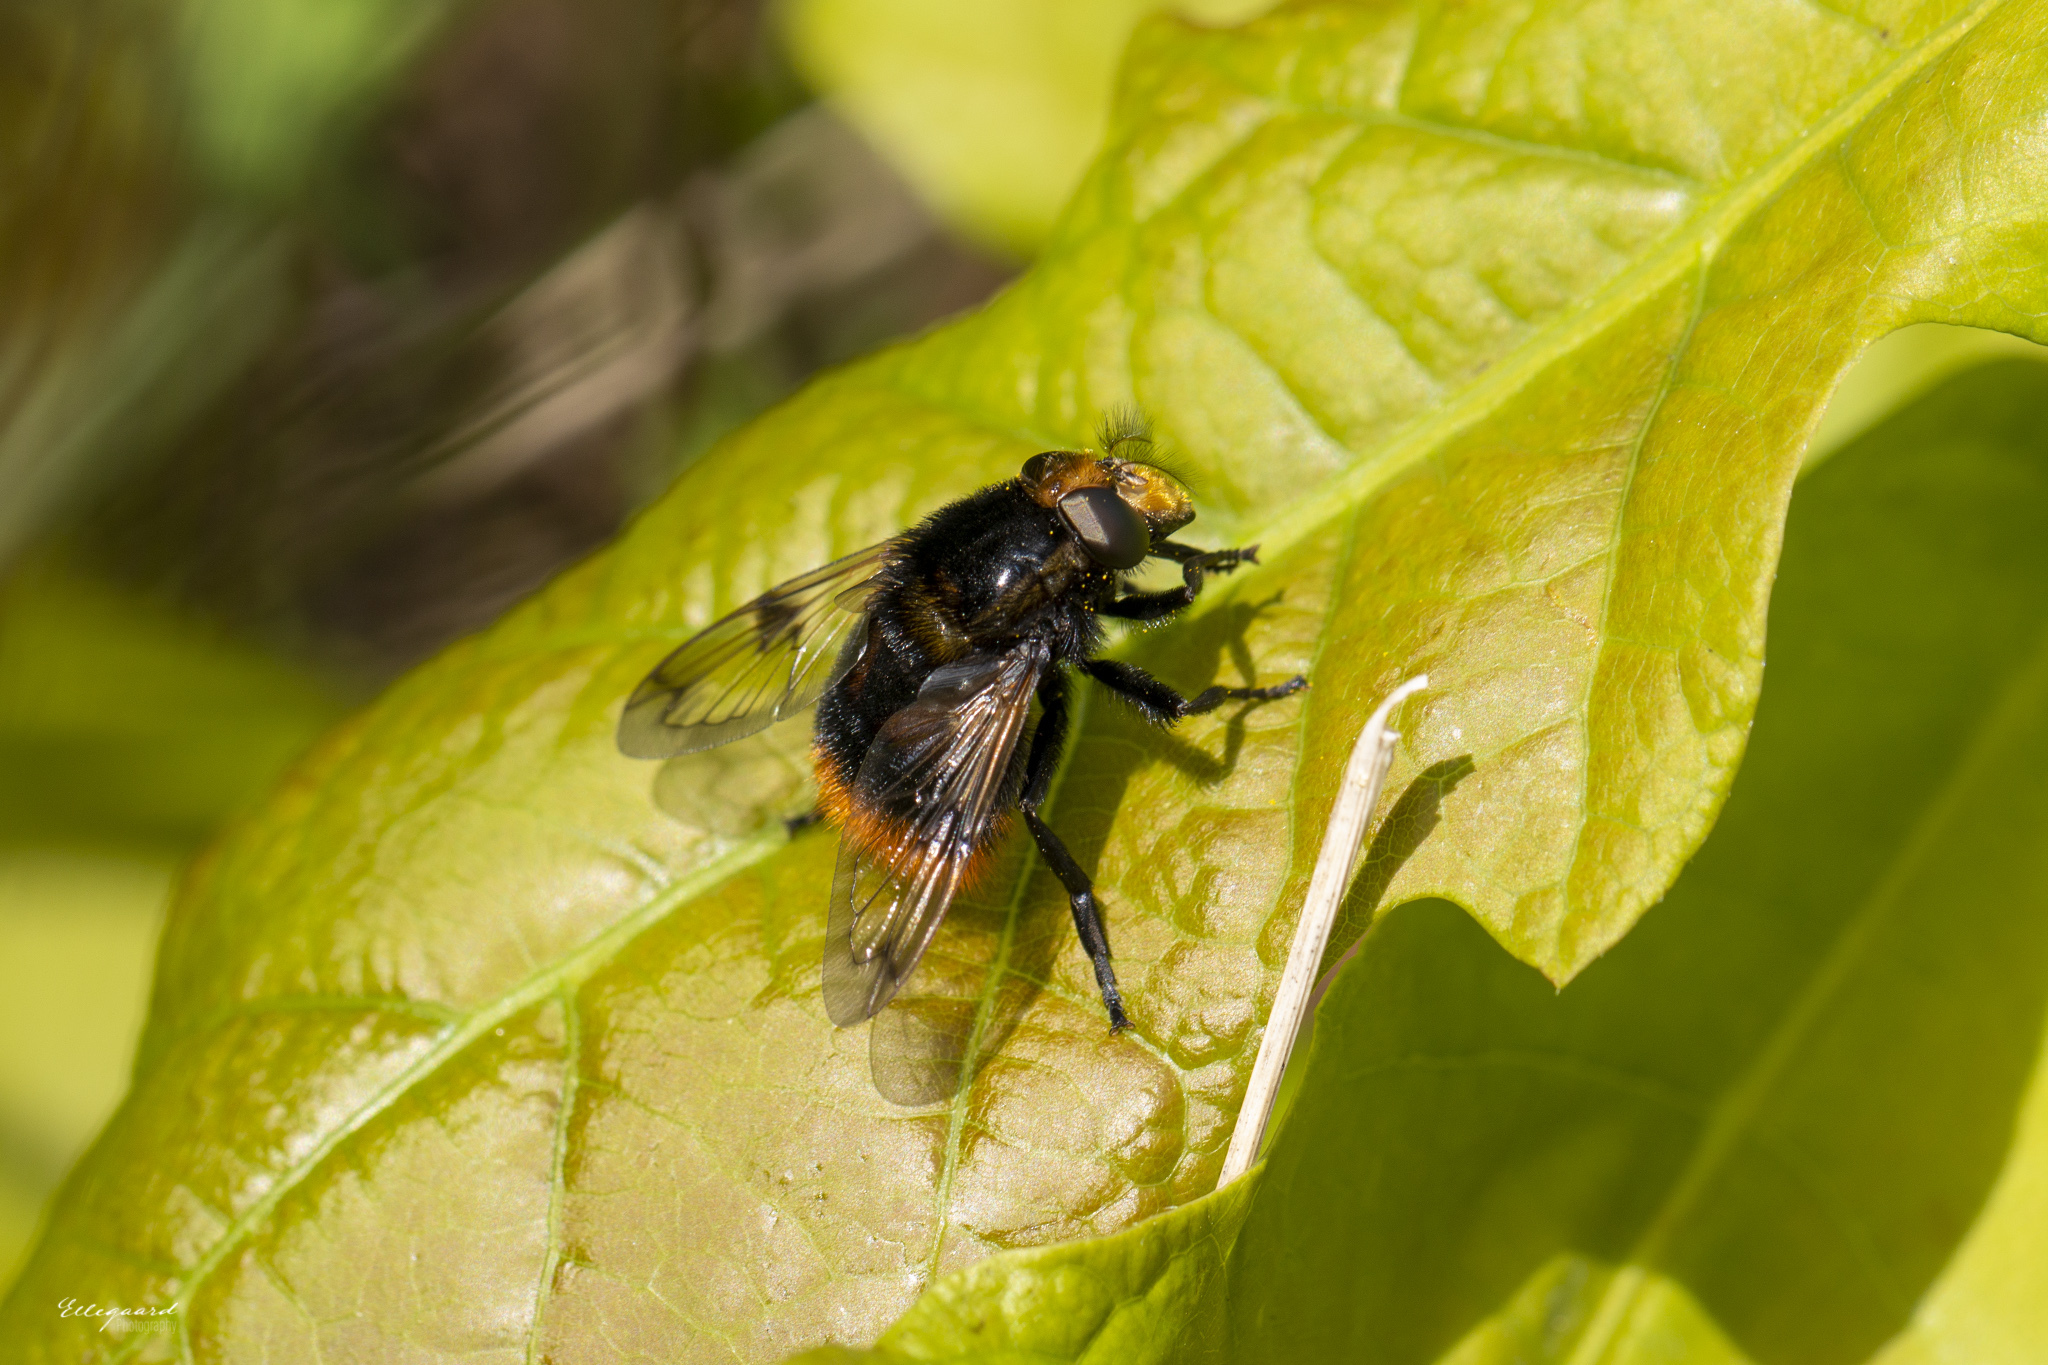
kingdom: Animalia
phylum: Arthropoda
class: Insecta
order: Diptera
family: Syrphidae
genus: Volucella
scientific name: Volucella bombylans
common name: Bumble bee hover fly
